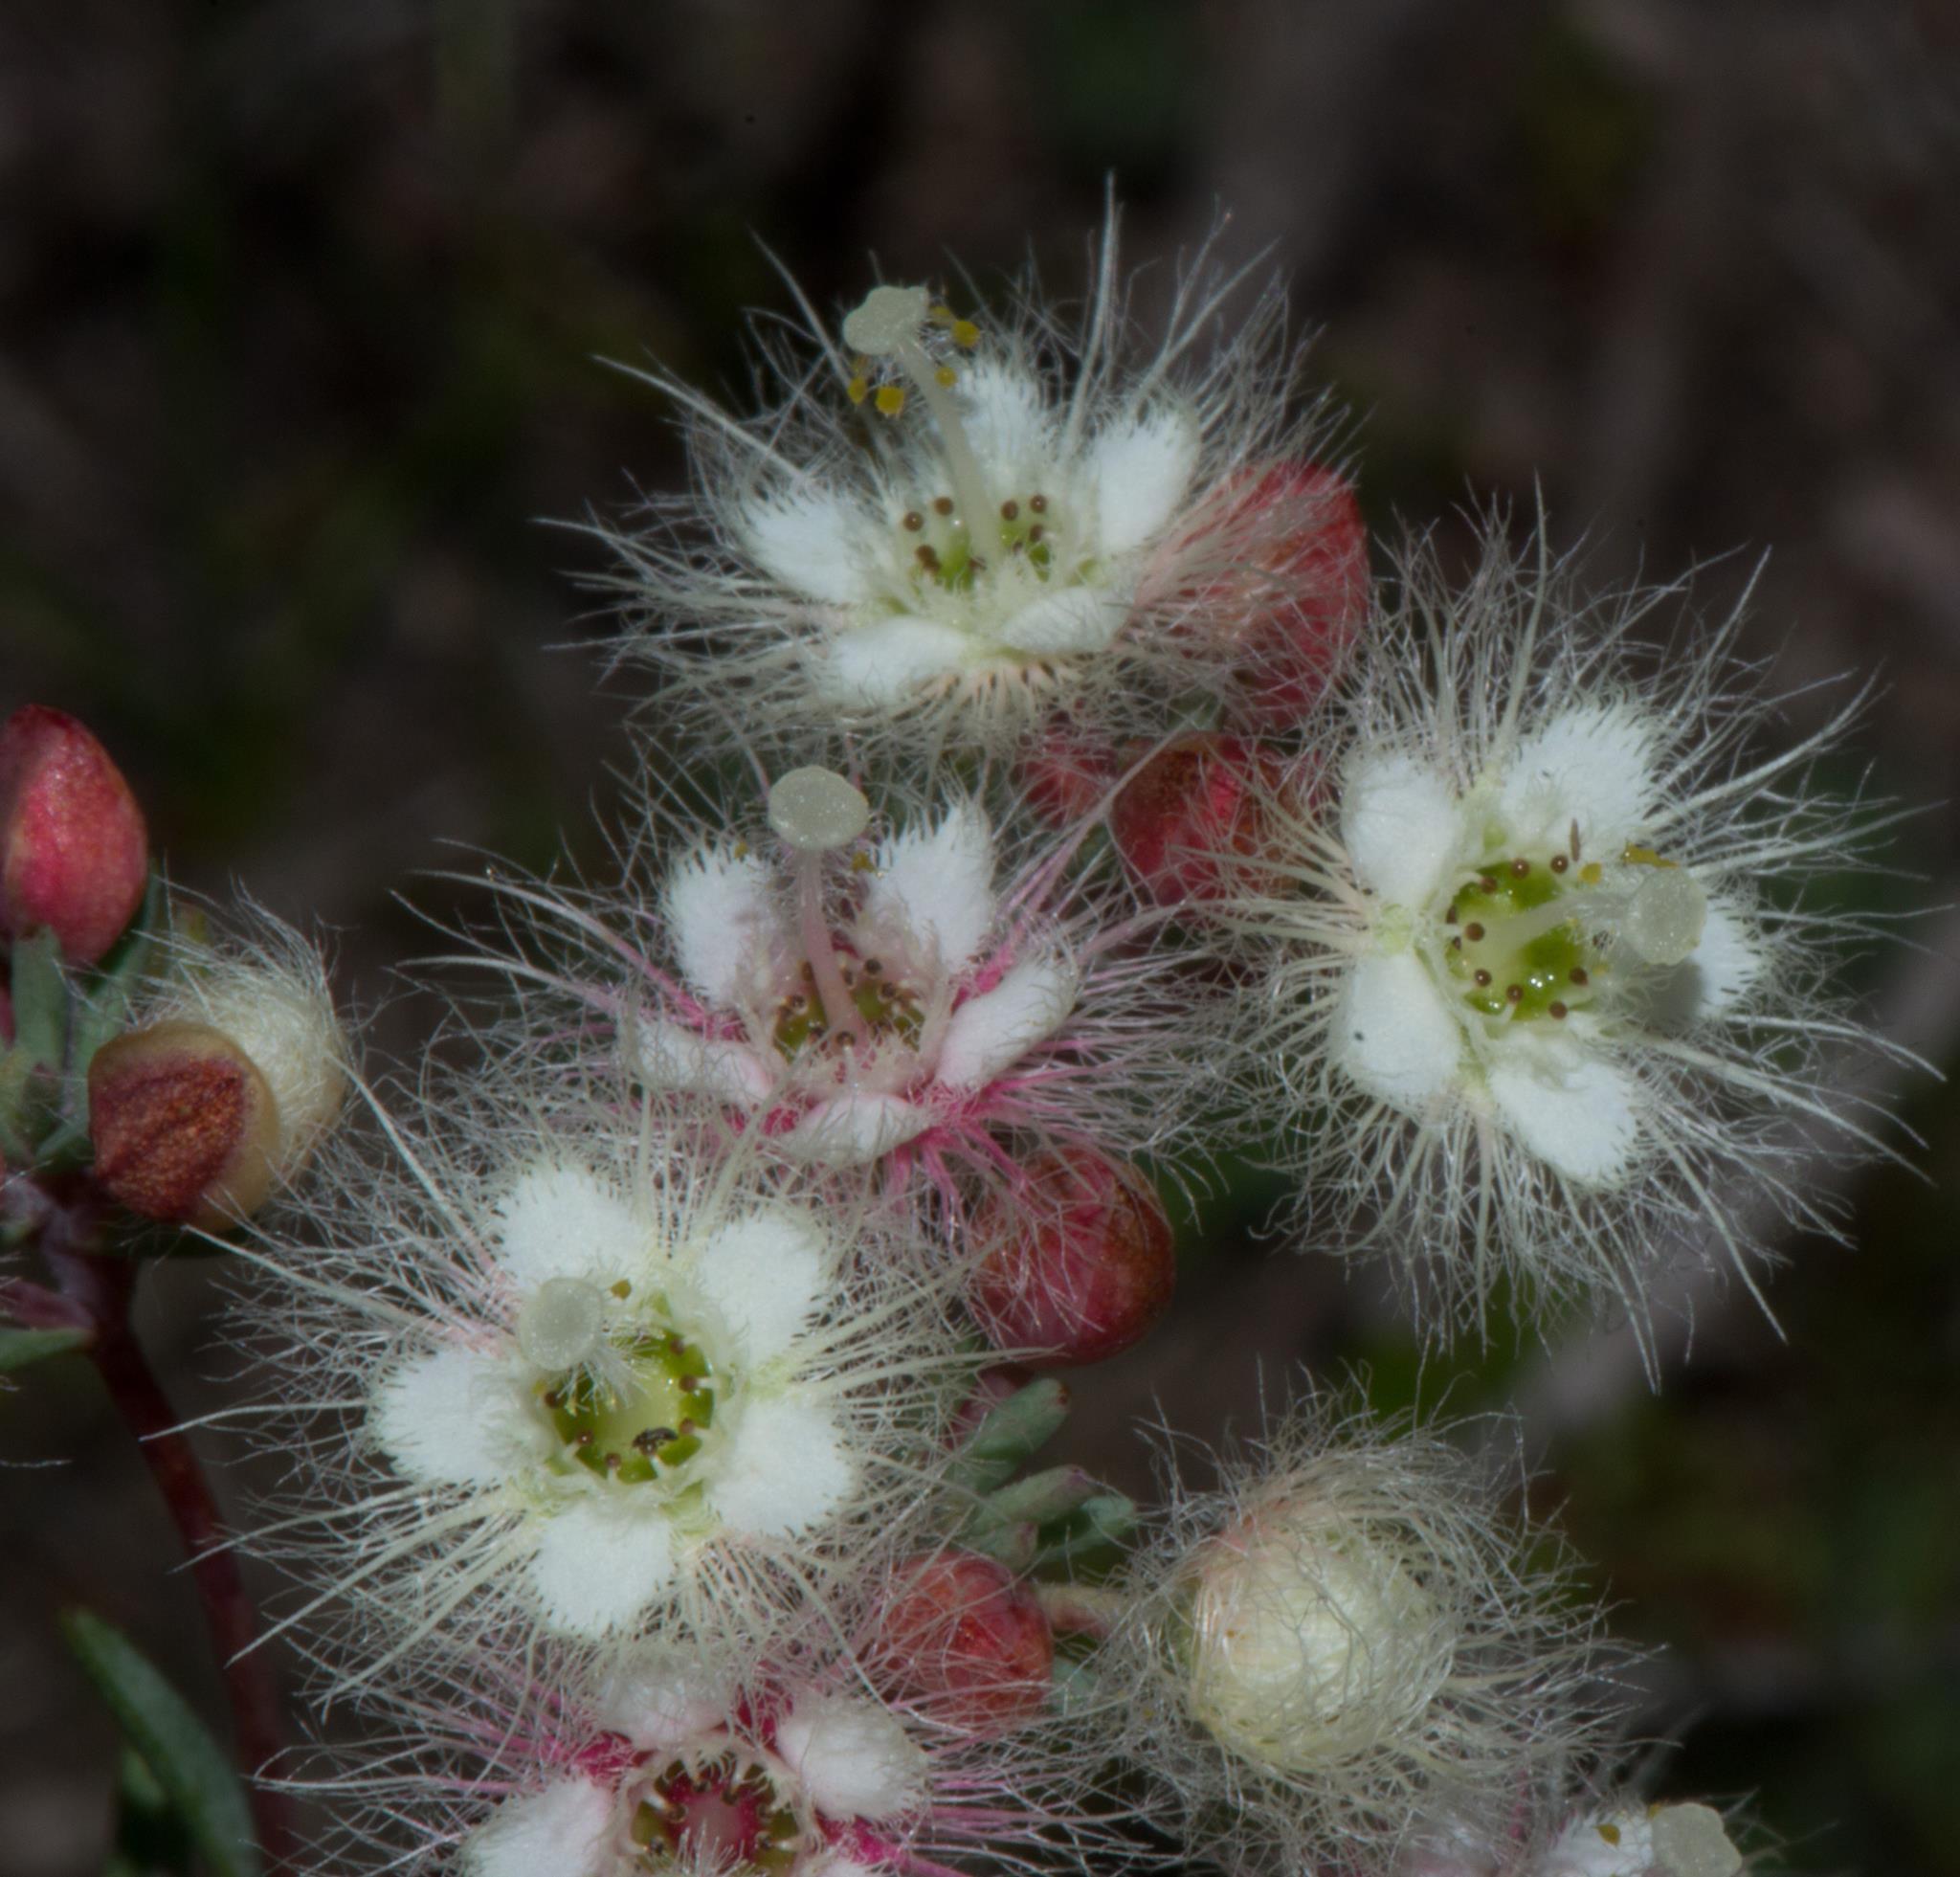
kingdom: Plantae
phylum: Tracheophyta
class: Magnoliopsida
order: Myrtales
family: Myrtaceae
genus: Verticordia
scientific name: Verticordia huegelii
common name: Variegate feather-flower
